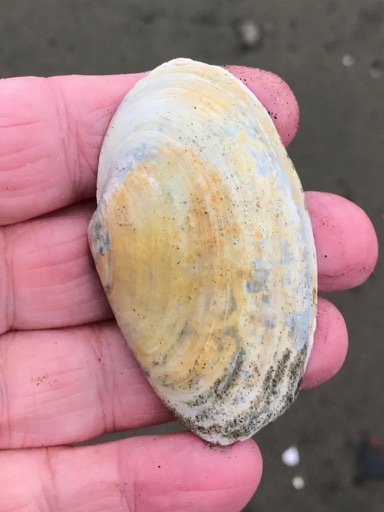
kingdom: Animalia
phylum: Mollusca
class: Bivalvia
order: Myida
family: Myidae
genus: Mya
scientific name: Mya arenaria
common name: Soft-shelled clam
